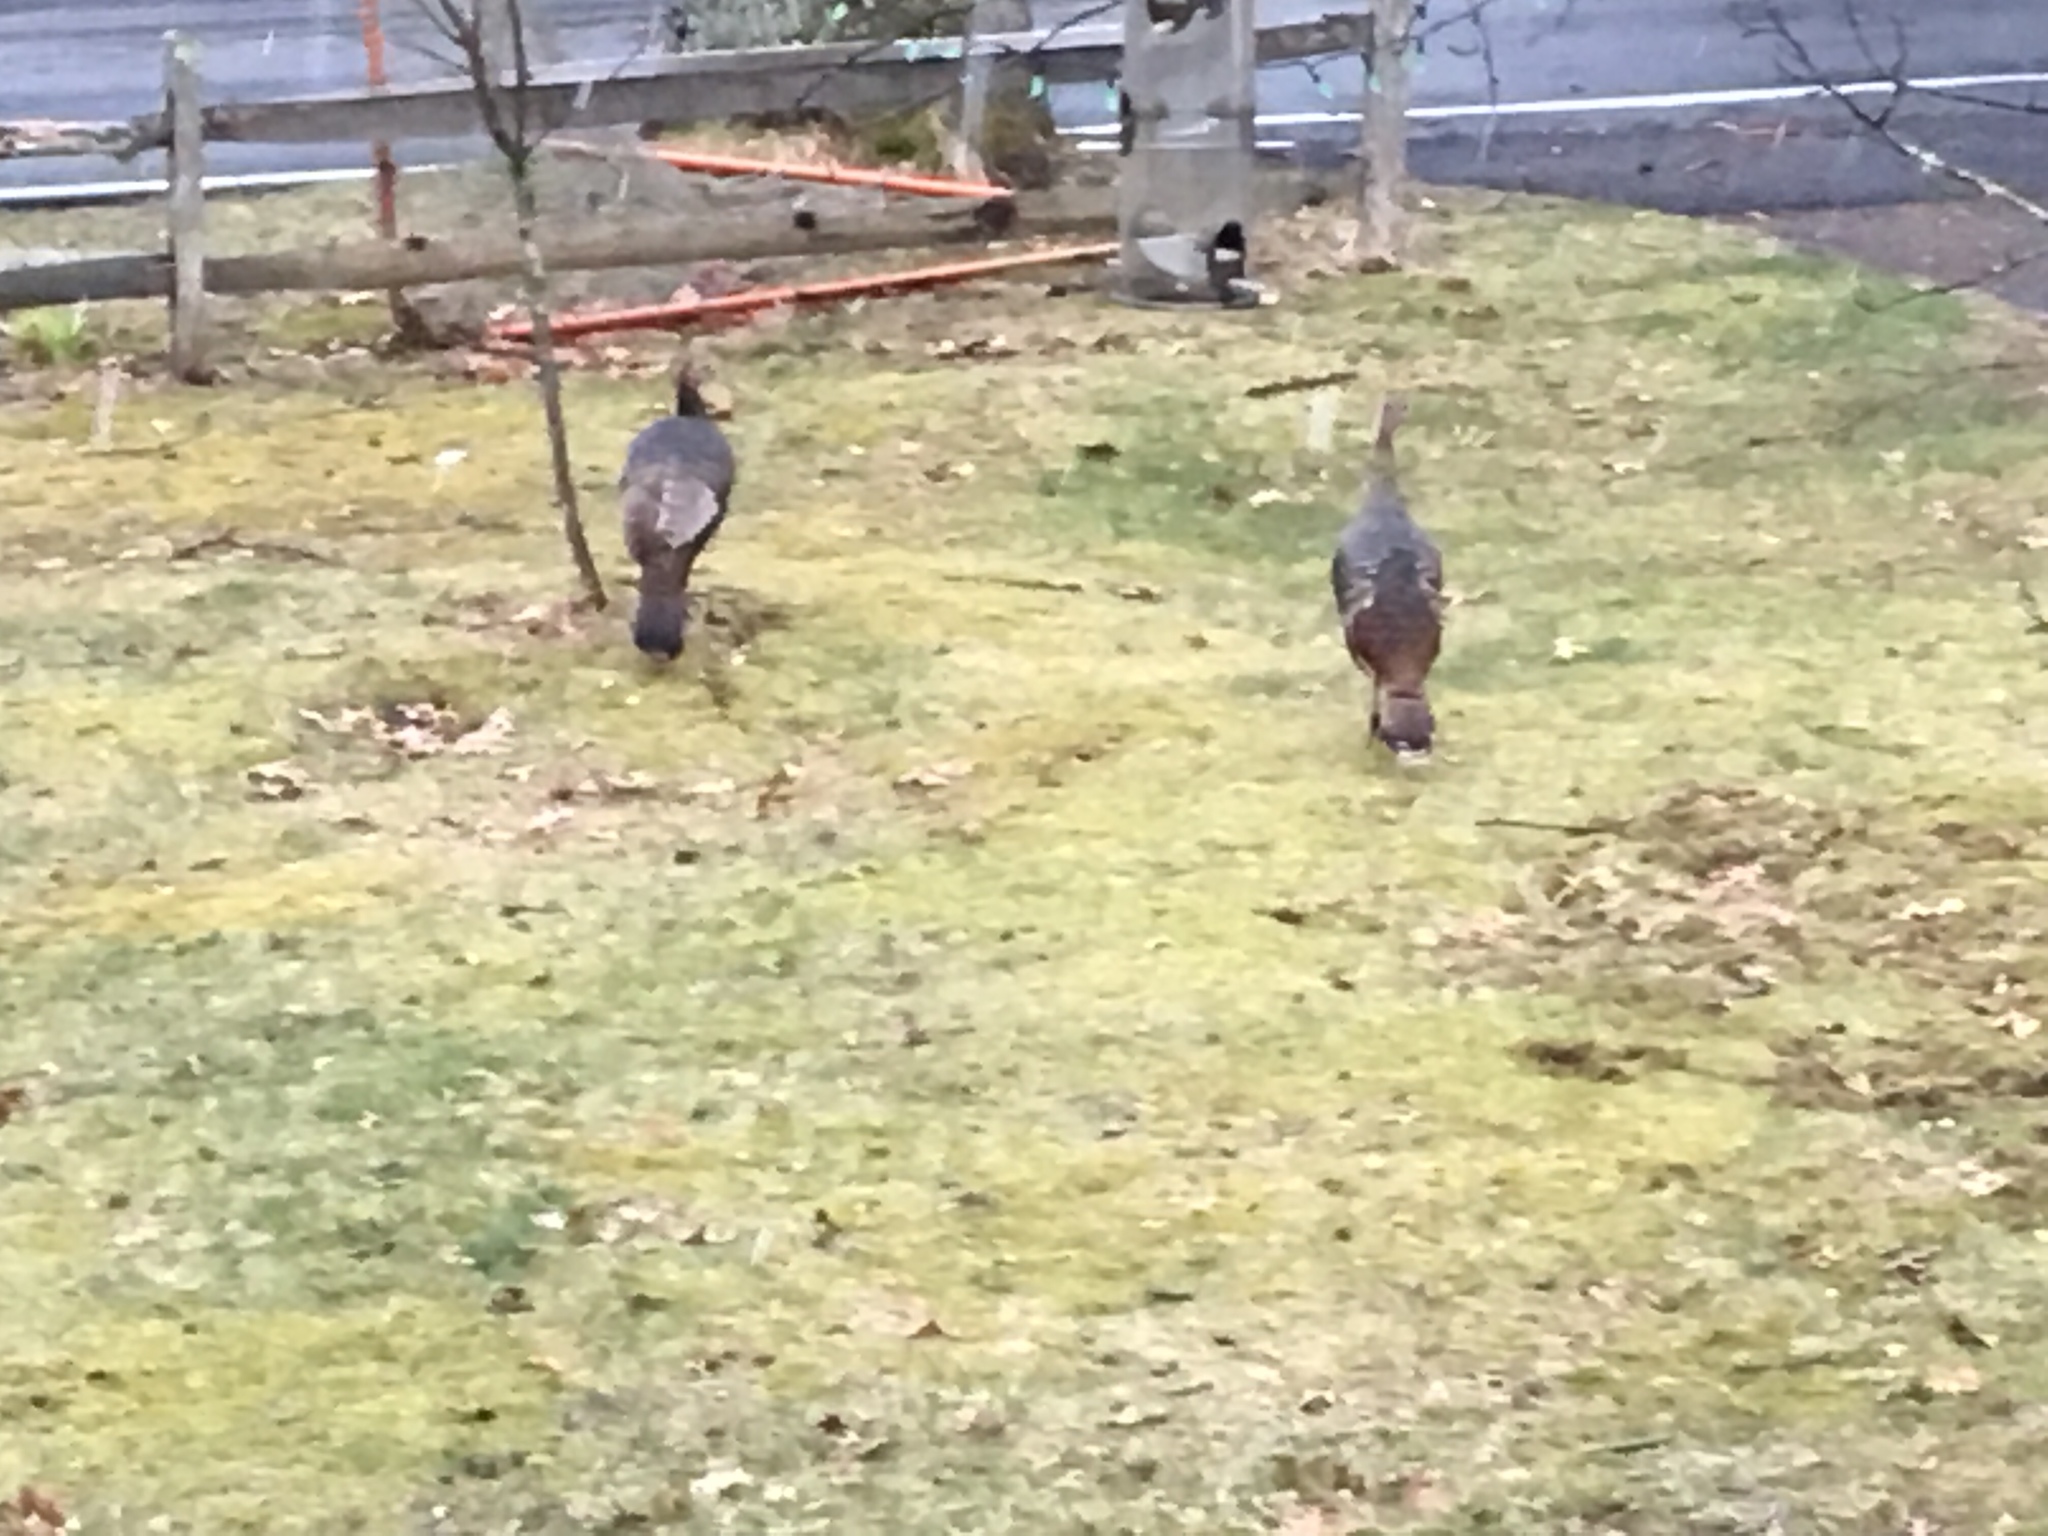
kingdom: Animalia
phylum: Chordata
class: Aves
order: Galliformes
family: Phasianidae
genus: Meleagris
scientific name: Meleagris gallopavo
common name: Wild turkey
